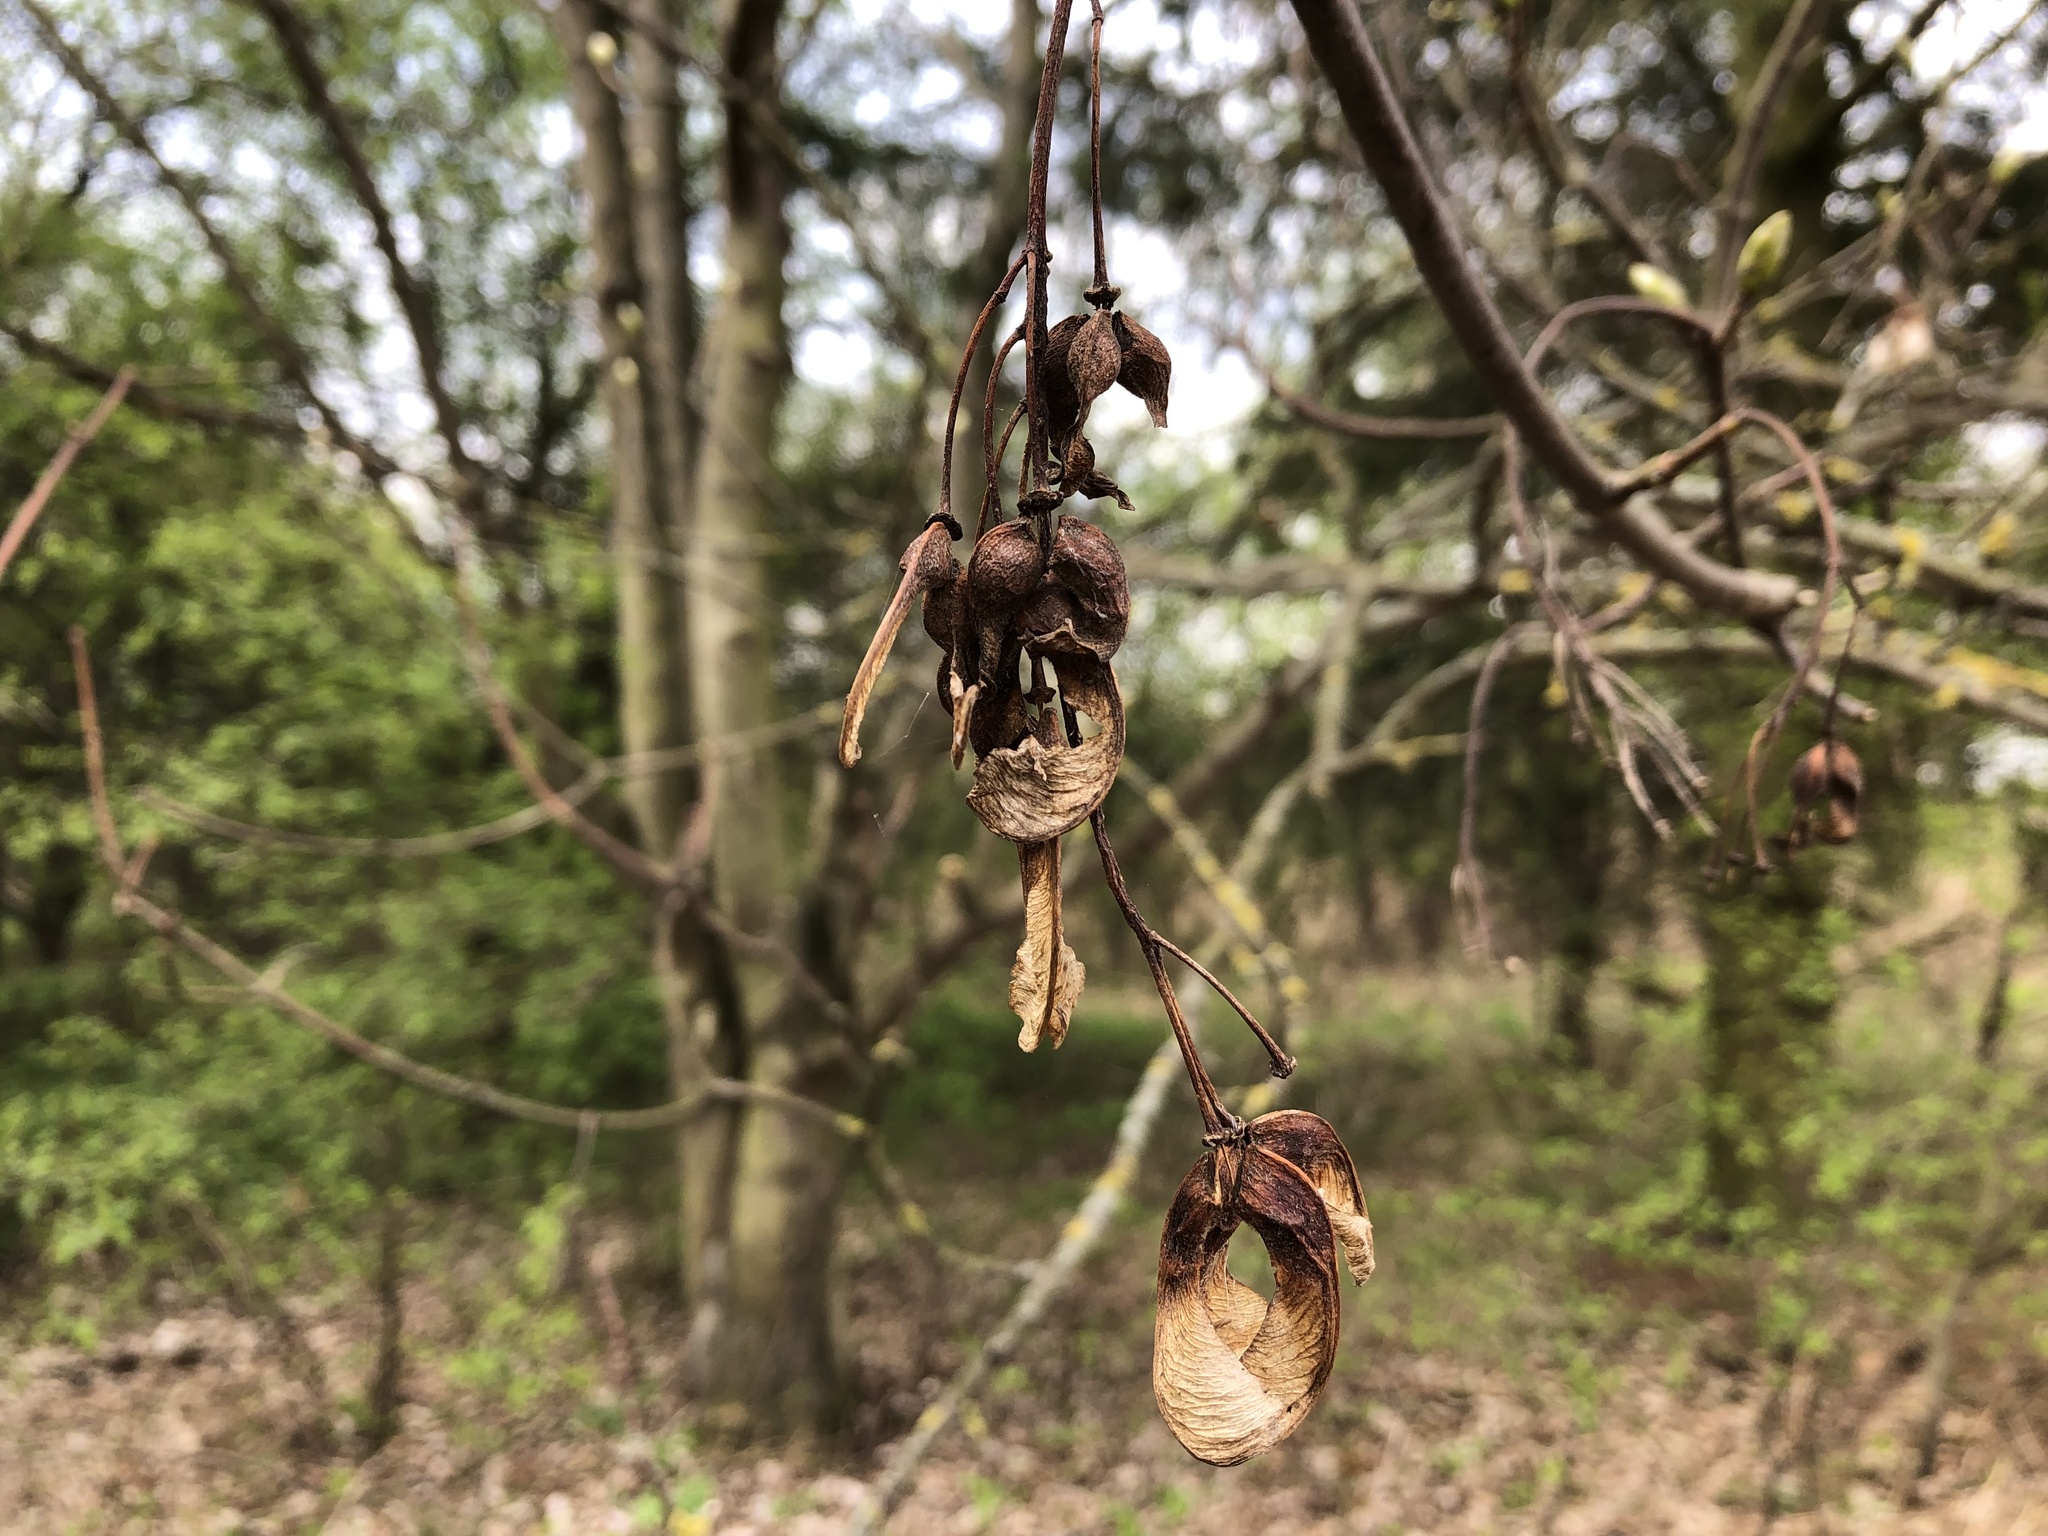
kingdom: Plantae
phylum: Tracheophyta
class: Magnoliopsida
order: Sapindales
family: Sapindaceae
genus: Acer
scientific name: Acer pseudoplatanus
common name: Sycamore
